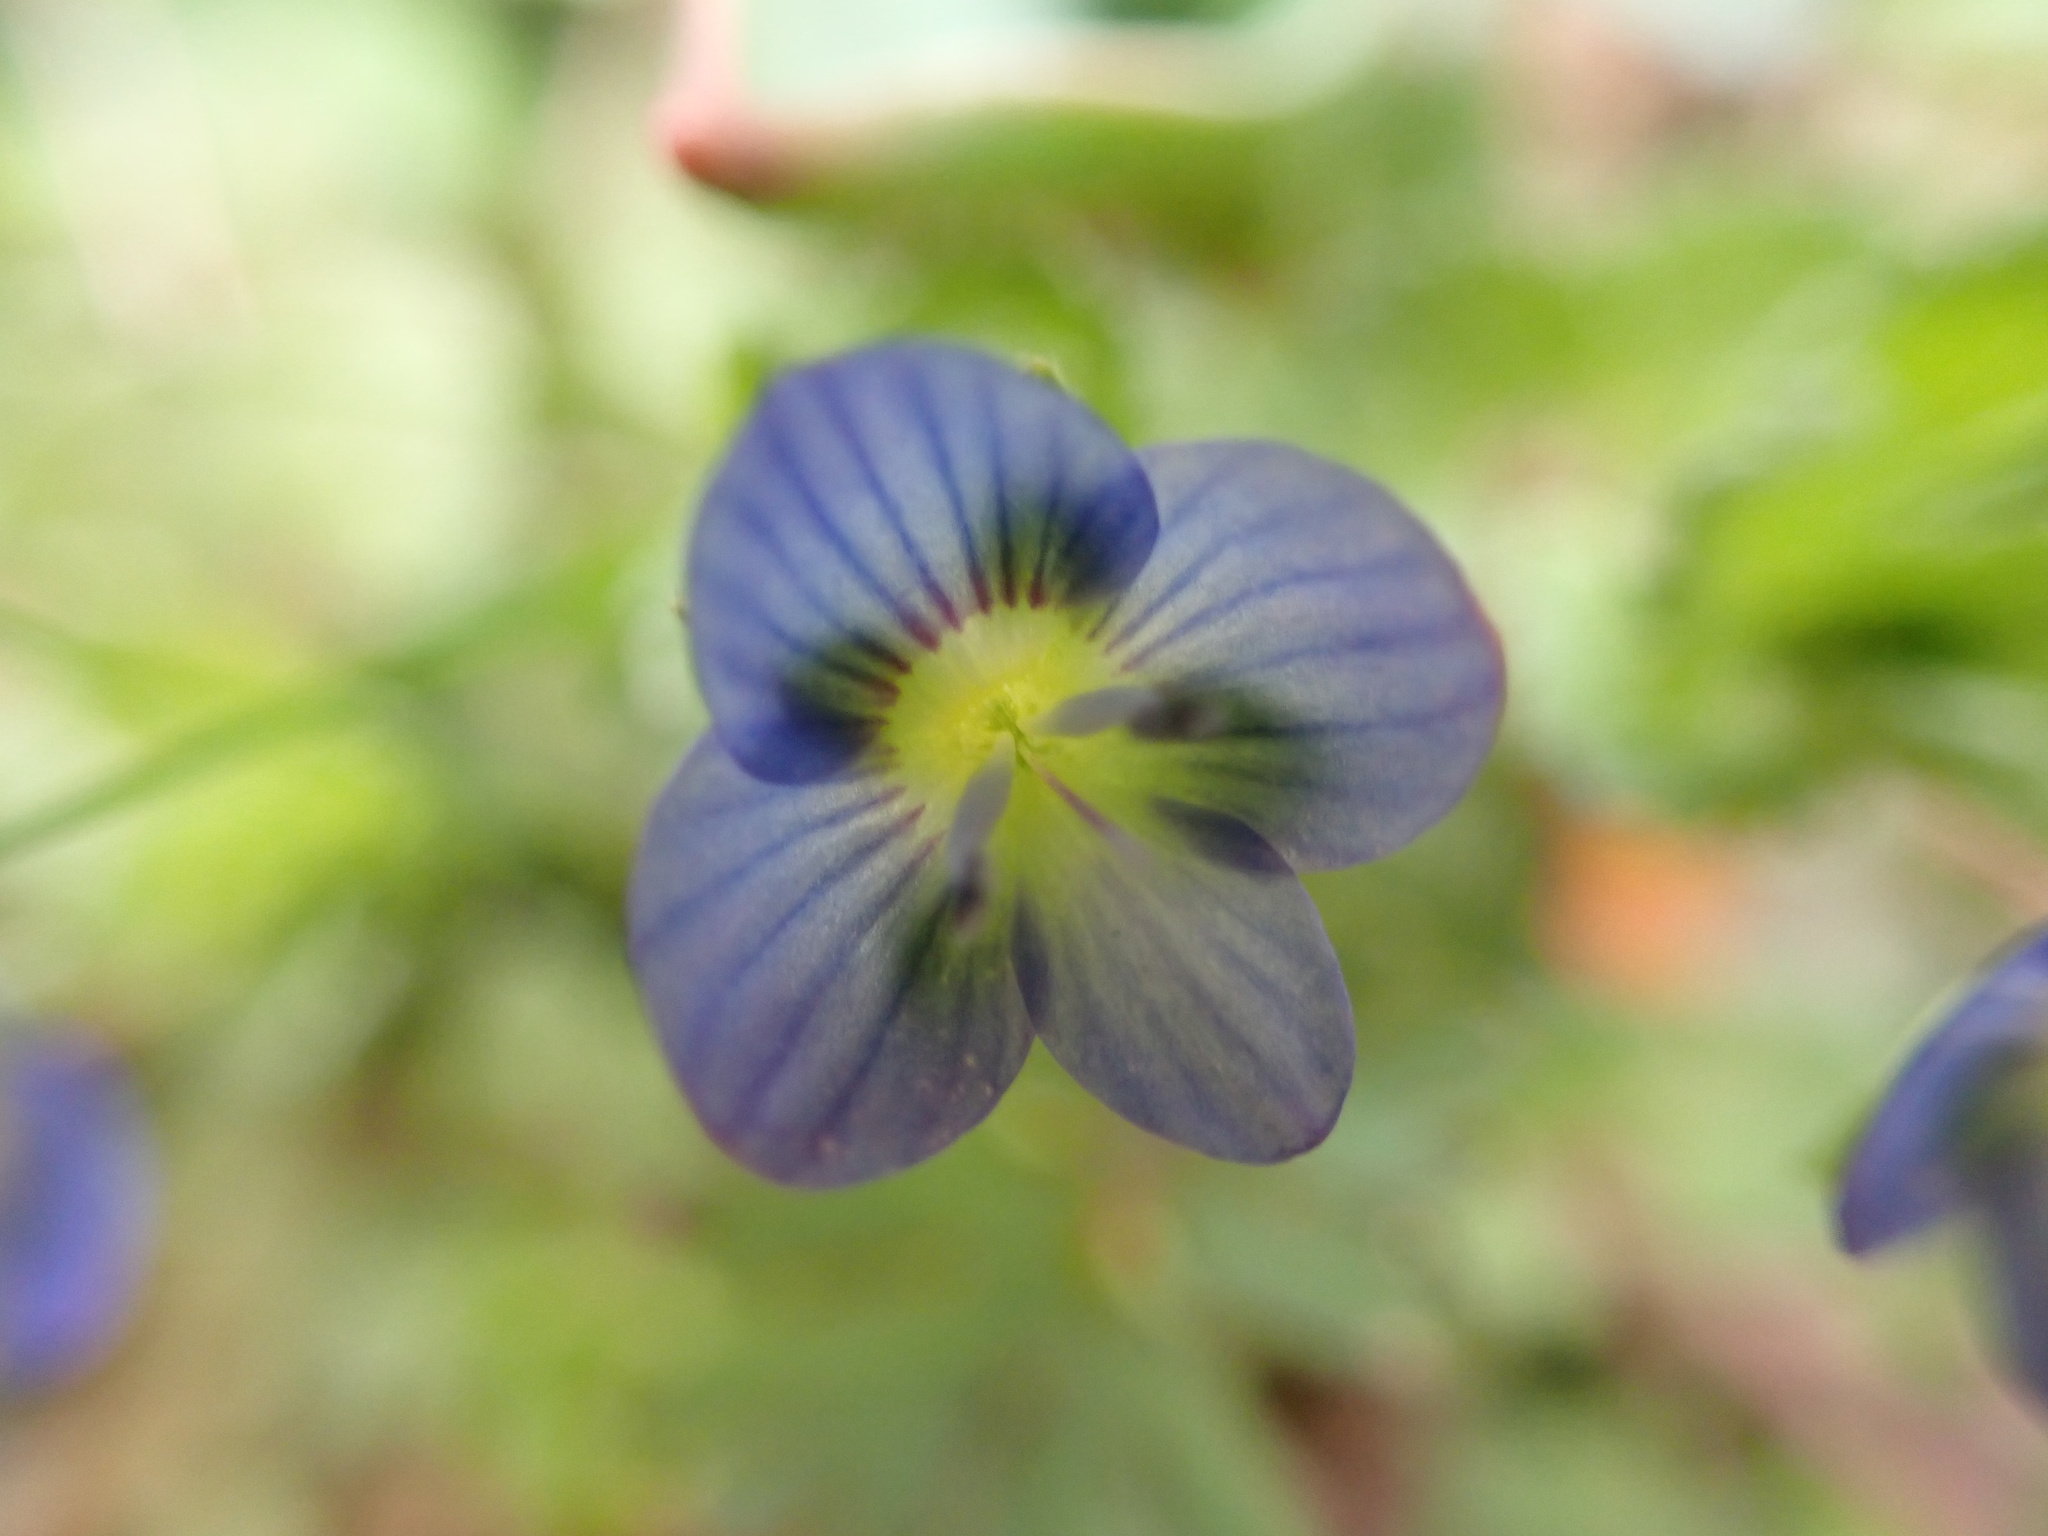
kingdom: Plantae
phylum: Tracheophyta
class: Magnoliopsida
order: Lamiales
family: Plantaginaceae
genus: Veronica
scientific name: Veronica persica
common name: Common field-speedwell
